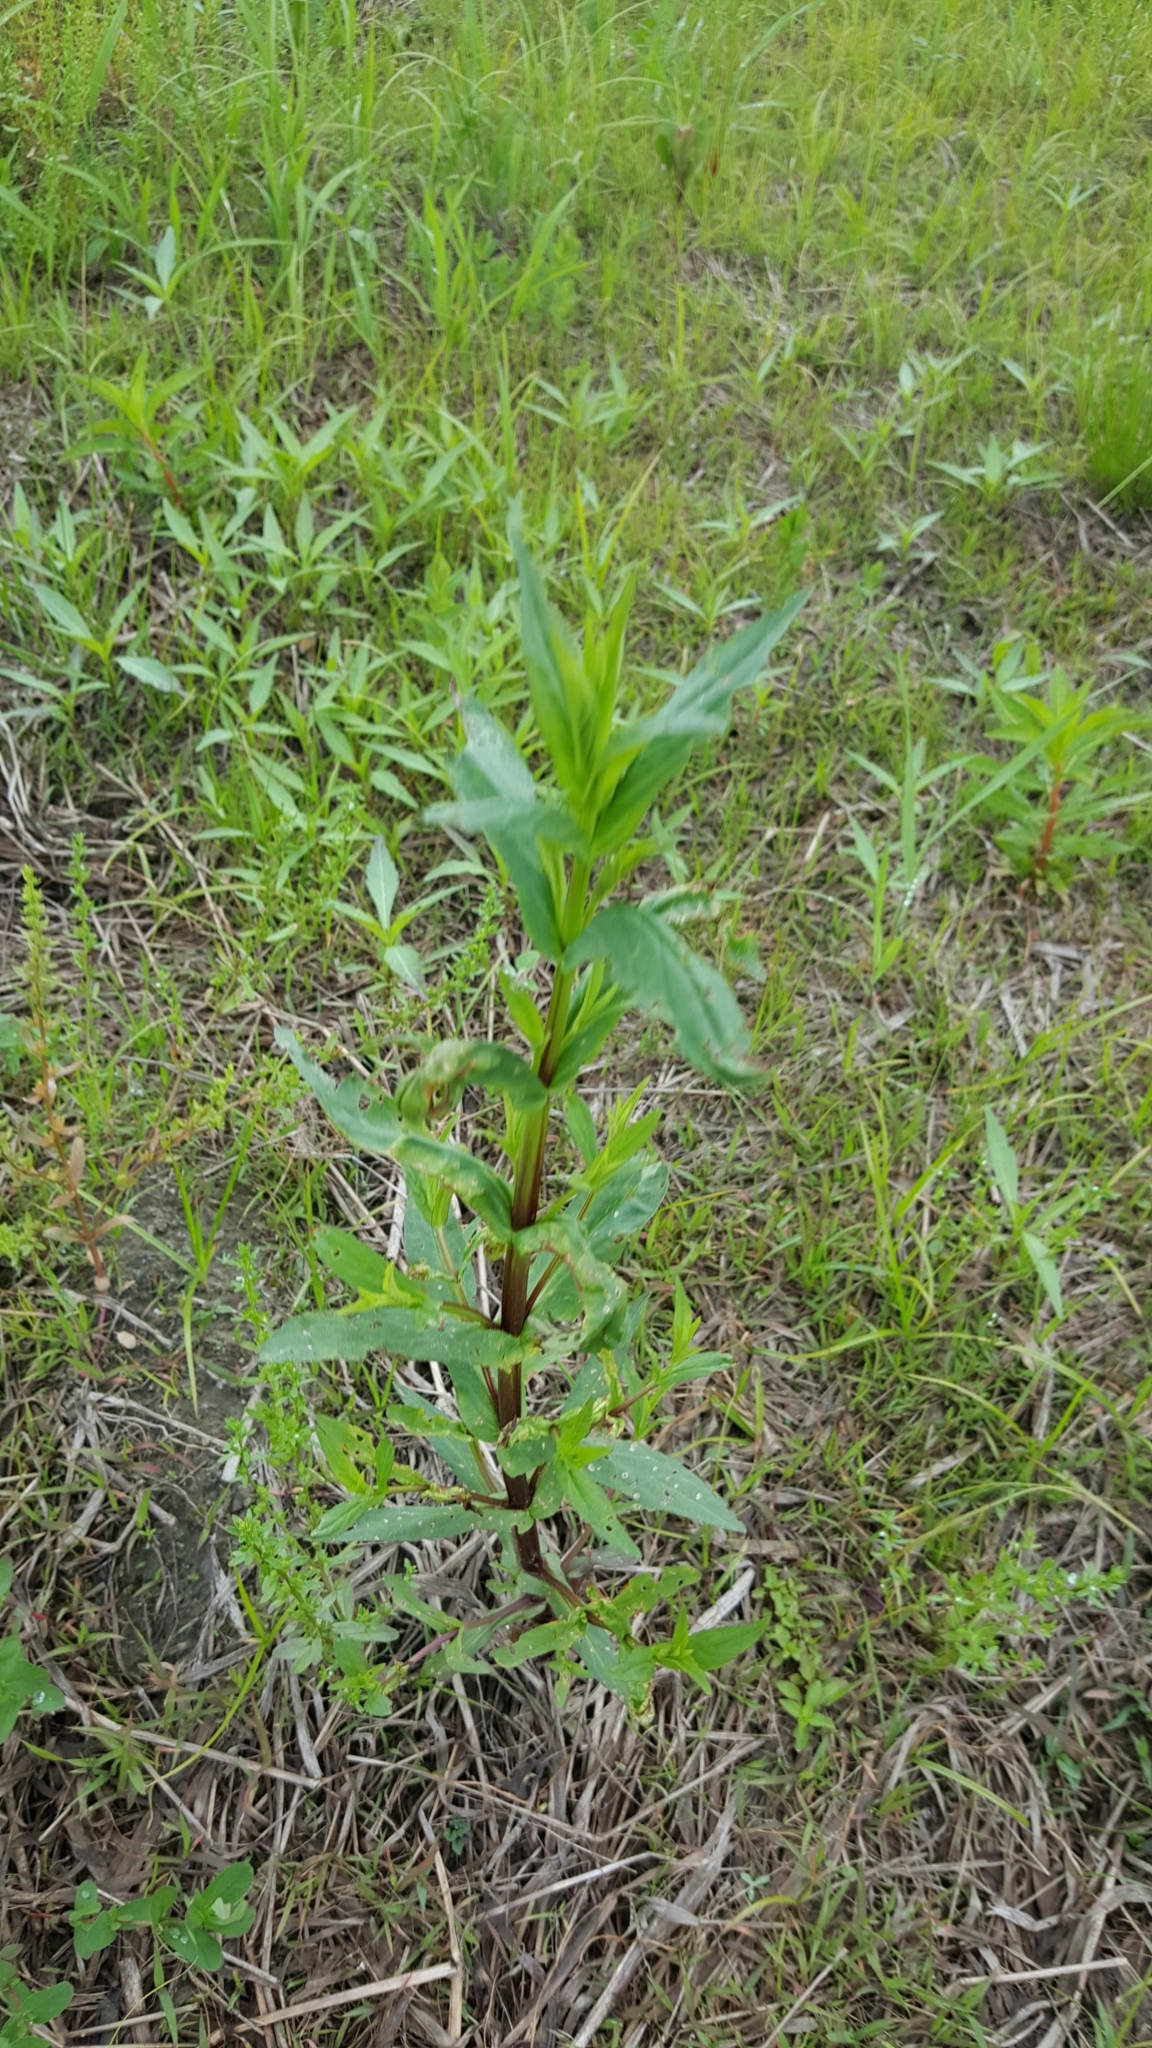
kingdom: Plantae
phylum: Tracheophyta
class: Magnoliopsida
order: Lamiales
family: Phrymaceae
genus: Mimulus
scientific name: Mimulus ringens
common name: Allegheny monkeyflower
